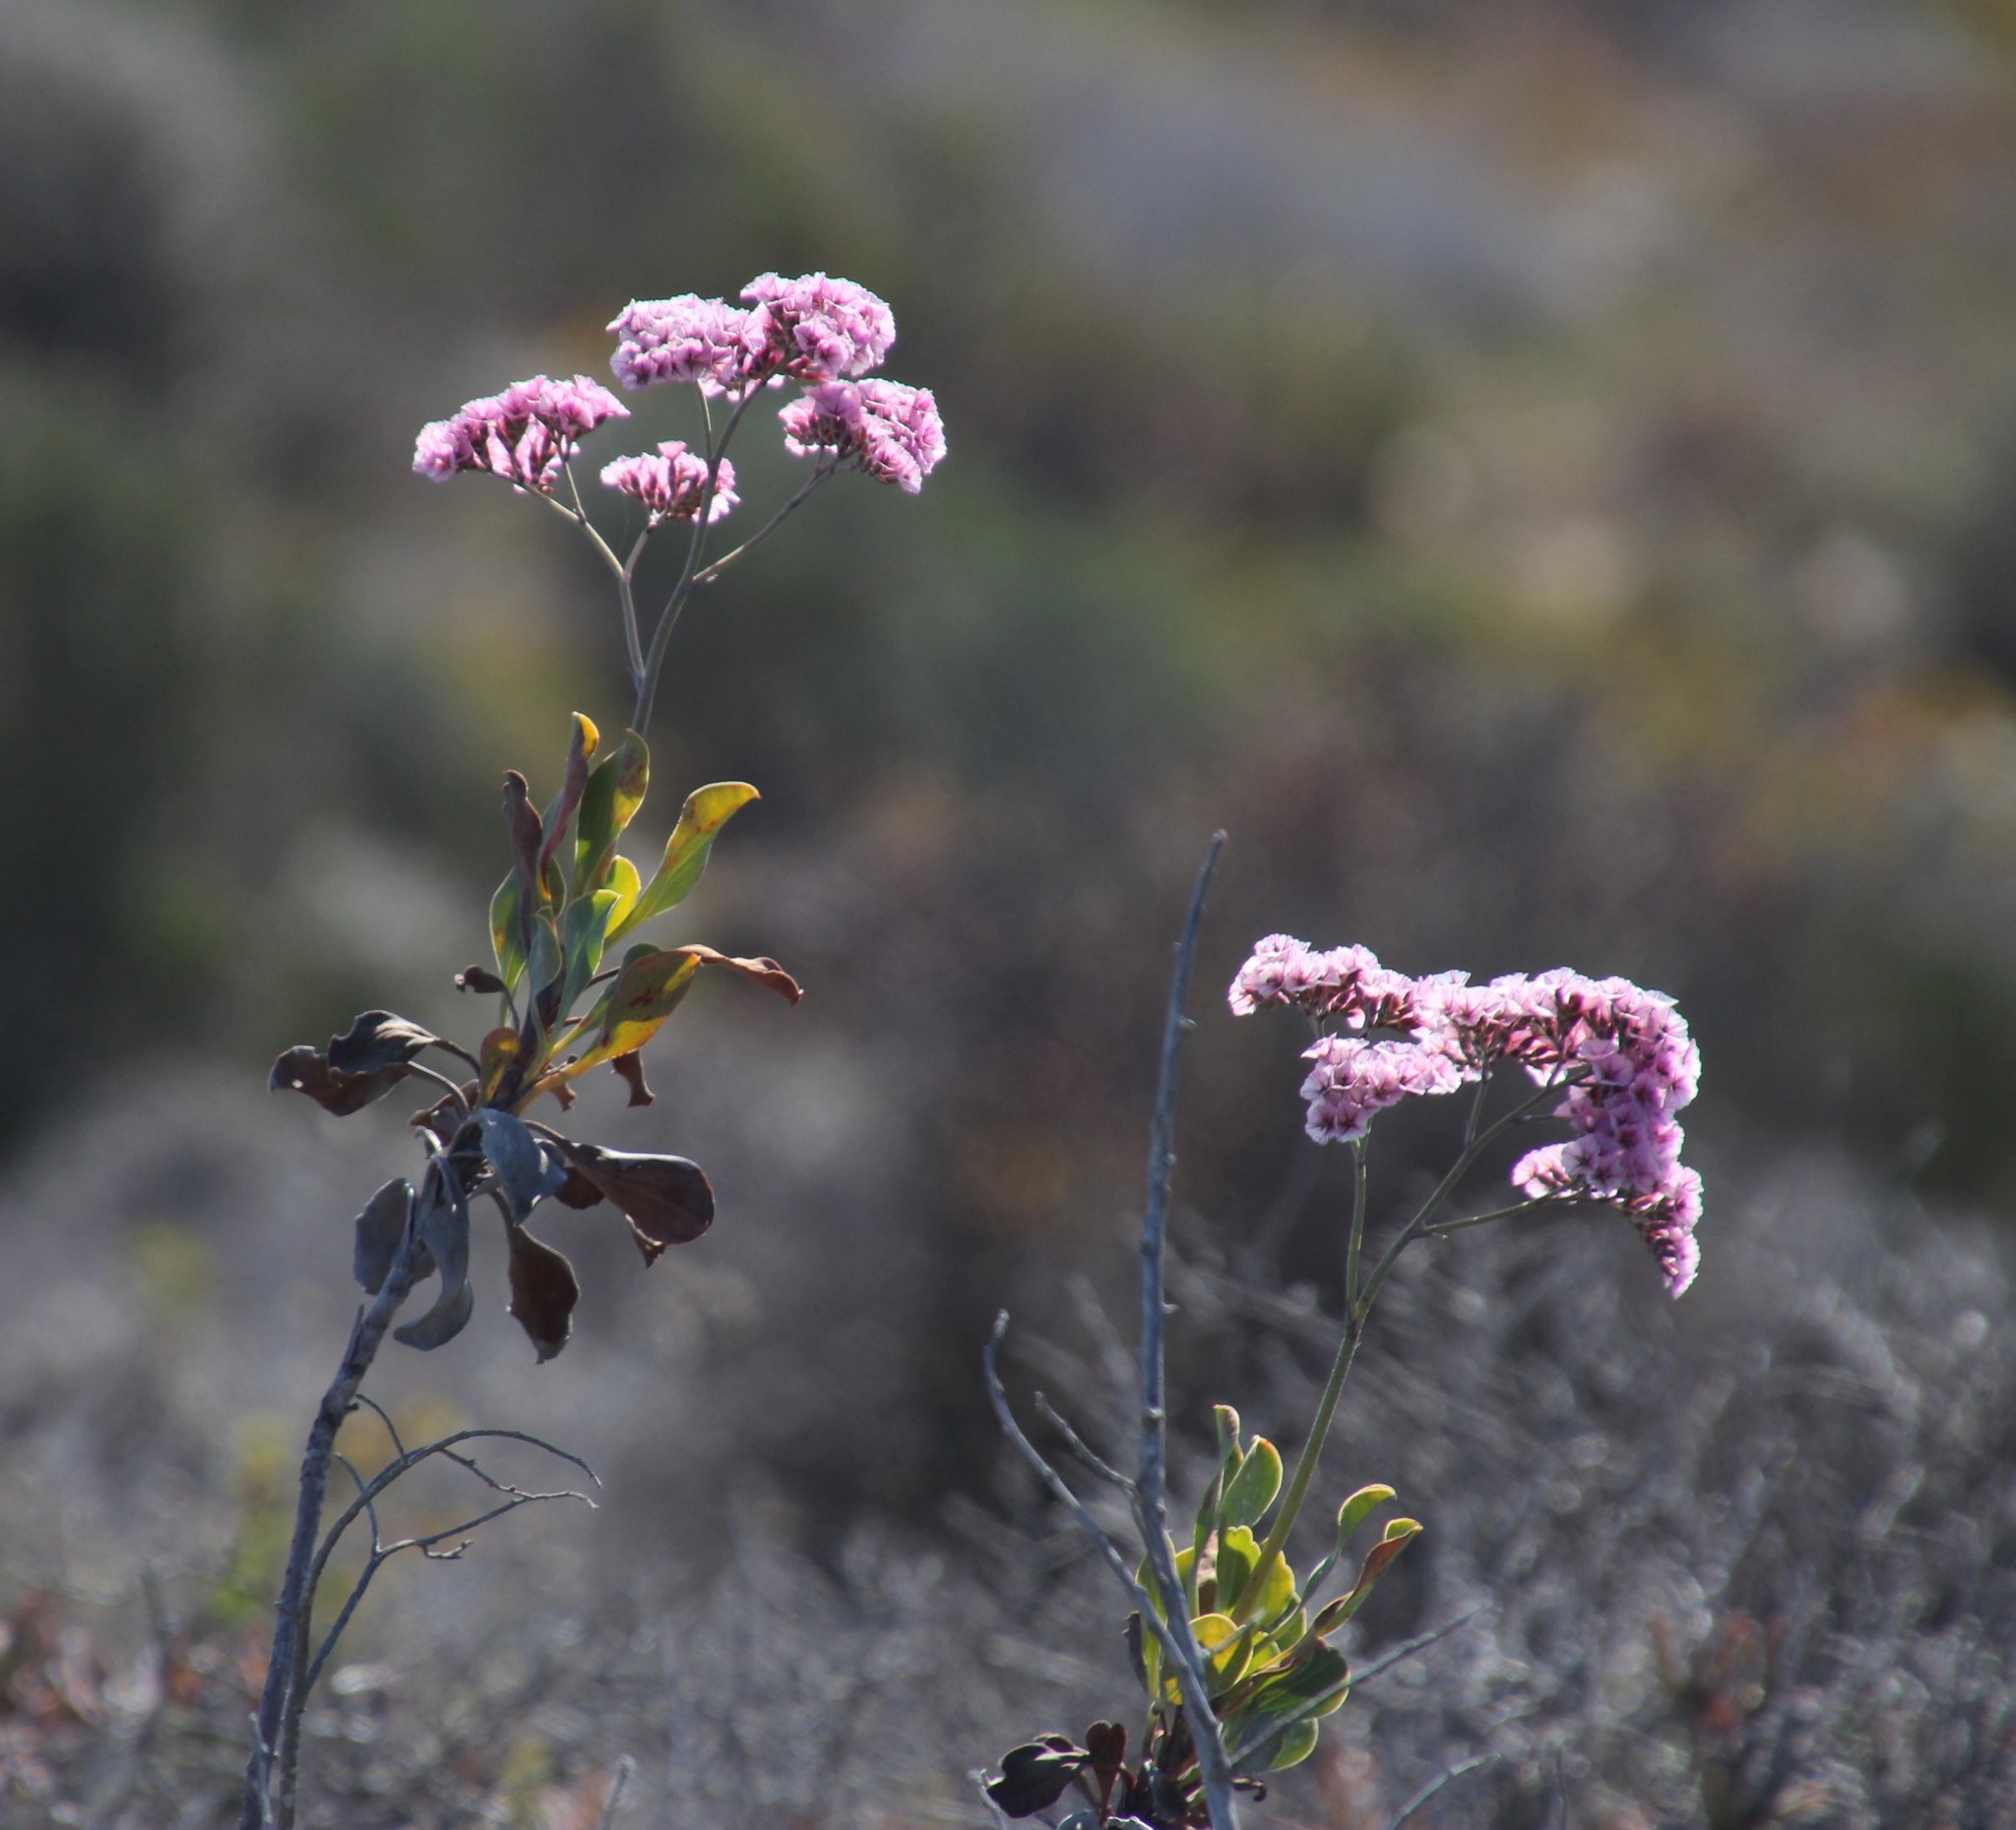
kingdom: Plantae
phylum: Tracheophyta
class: Magnoliopsida
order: Caryophyllales
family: Plumbaginaceae
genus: Limonium
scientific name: Limonium peregrinum
